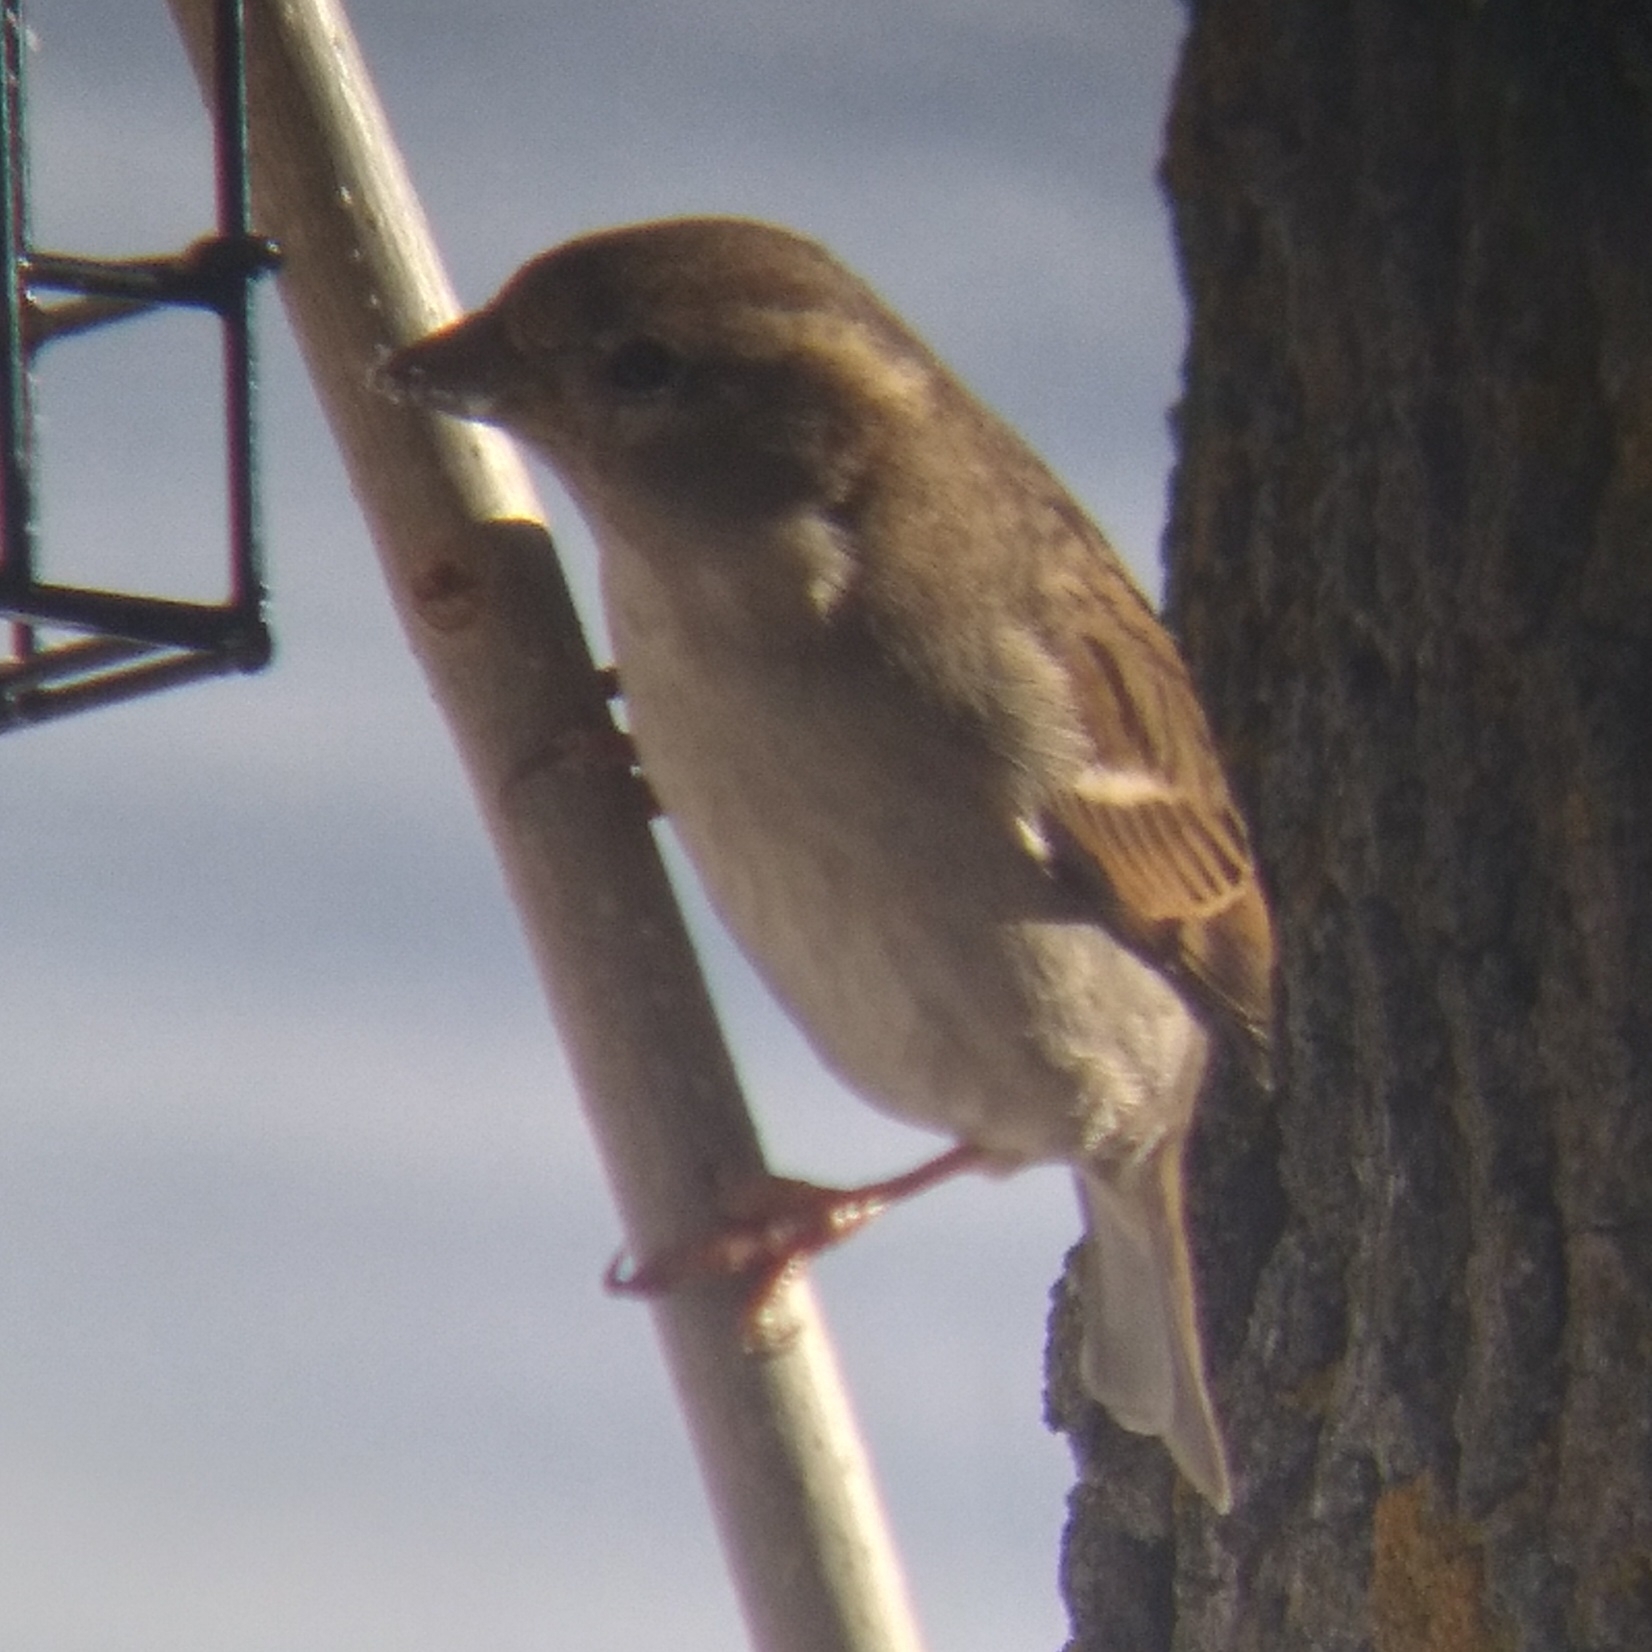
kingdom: Animalia
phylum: Chordata
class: Aves
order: Passeriformes
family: Passeridae
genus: Passer
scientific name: Passer domesticus
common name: House sparrow
